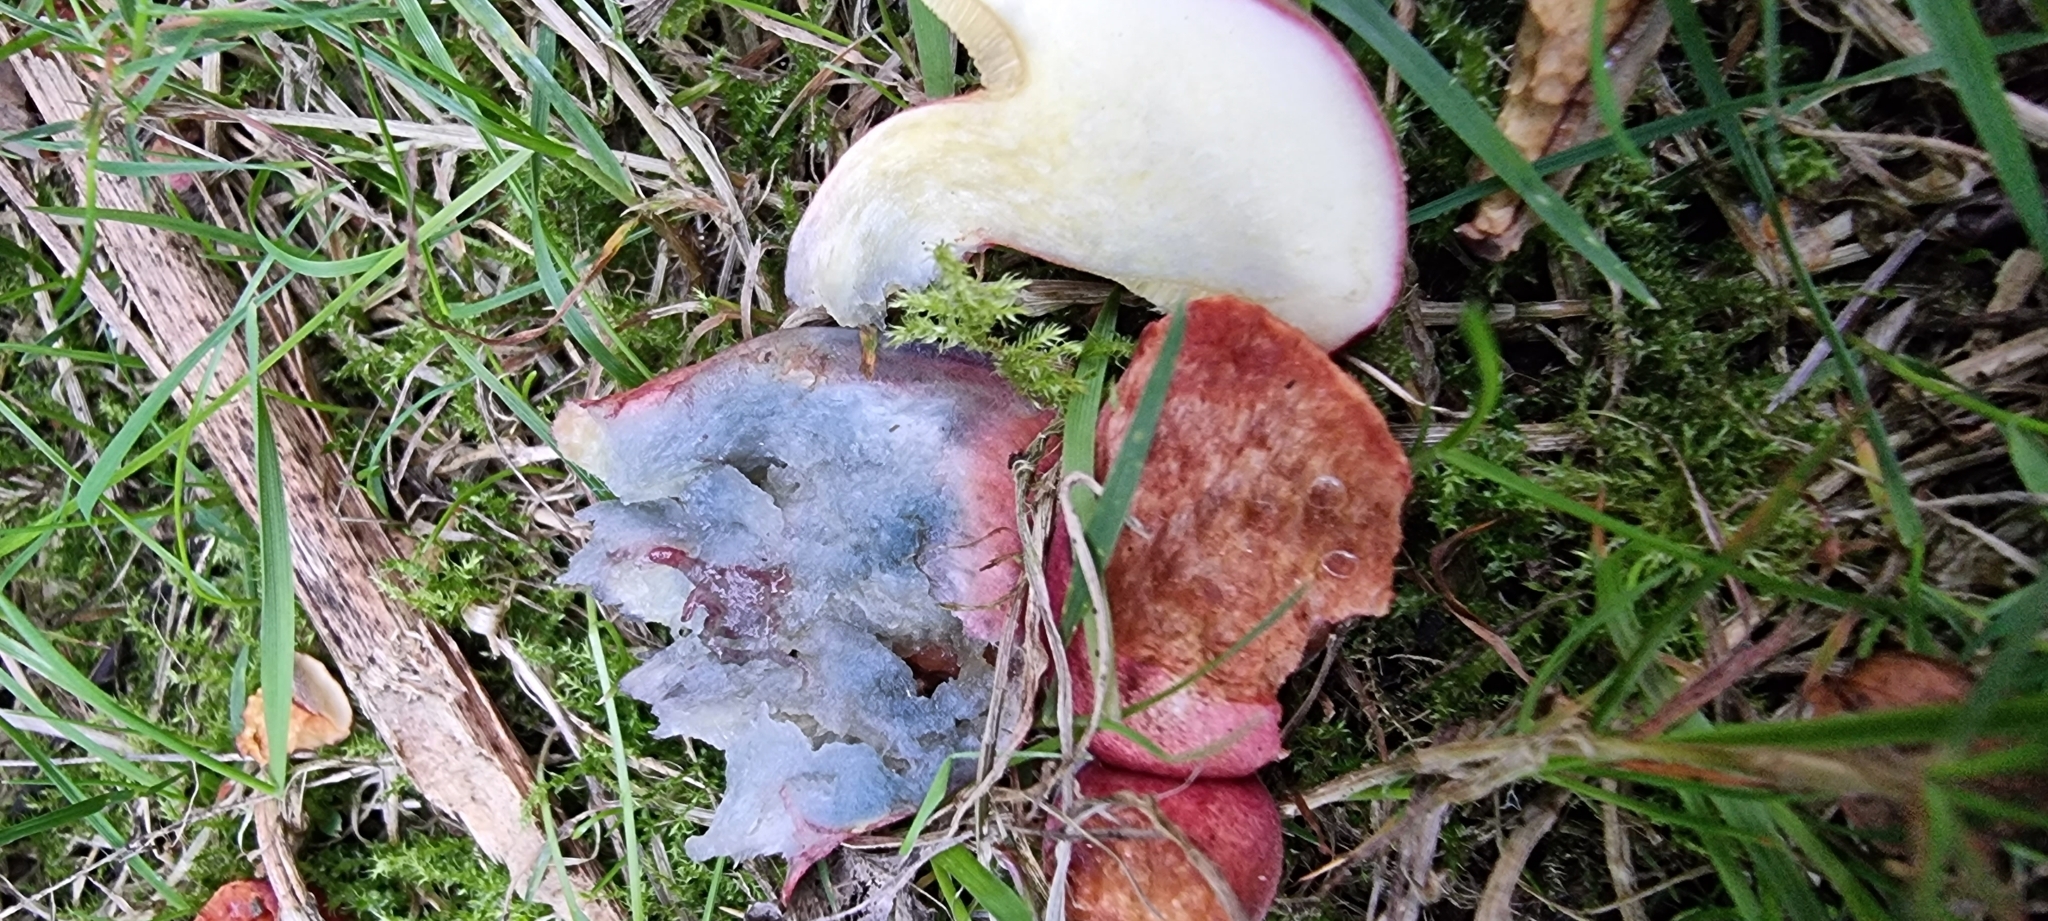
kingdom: Fungi
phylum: Basidiomycota
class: Agaricomycetes
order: Boletales
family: Boletaceae
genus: Hortiboletus
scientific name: Hortiboletus rubellus
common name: Ruby bolete
